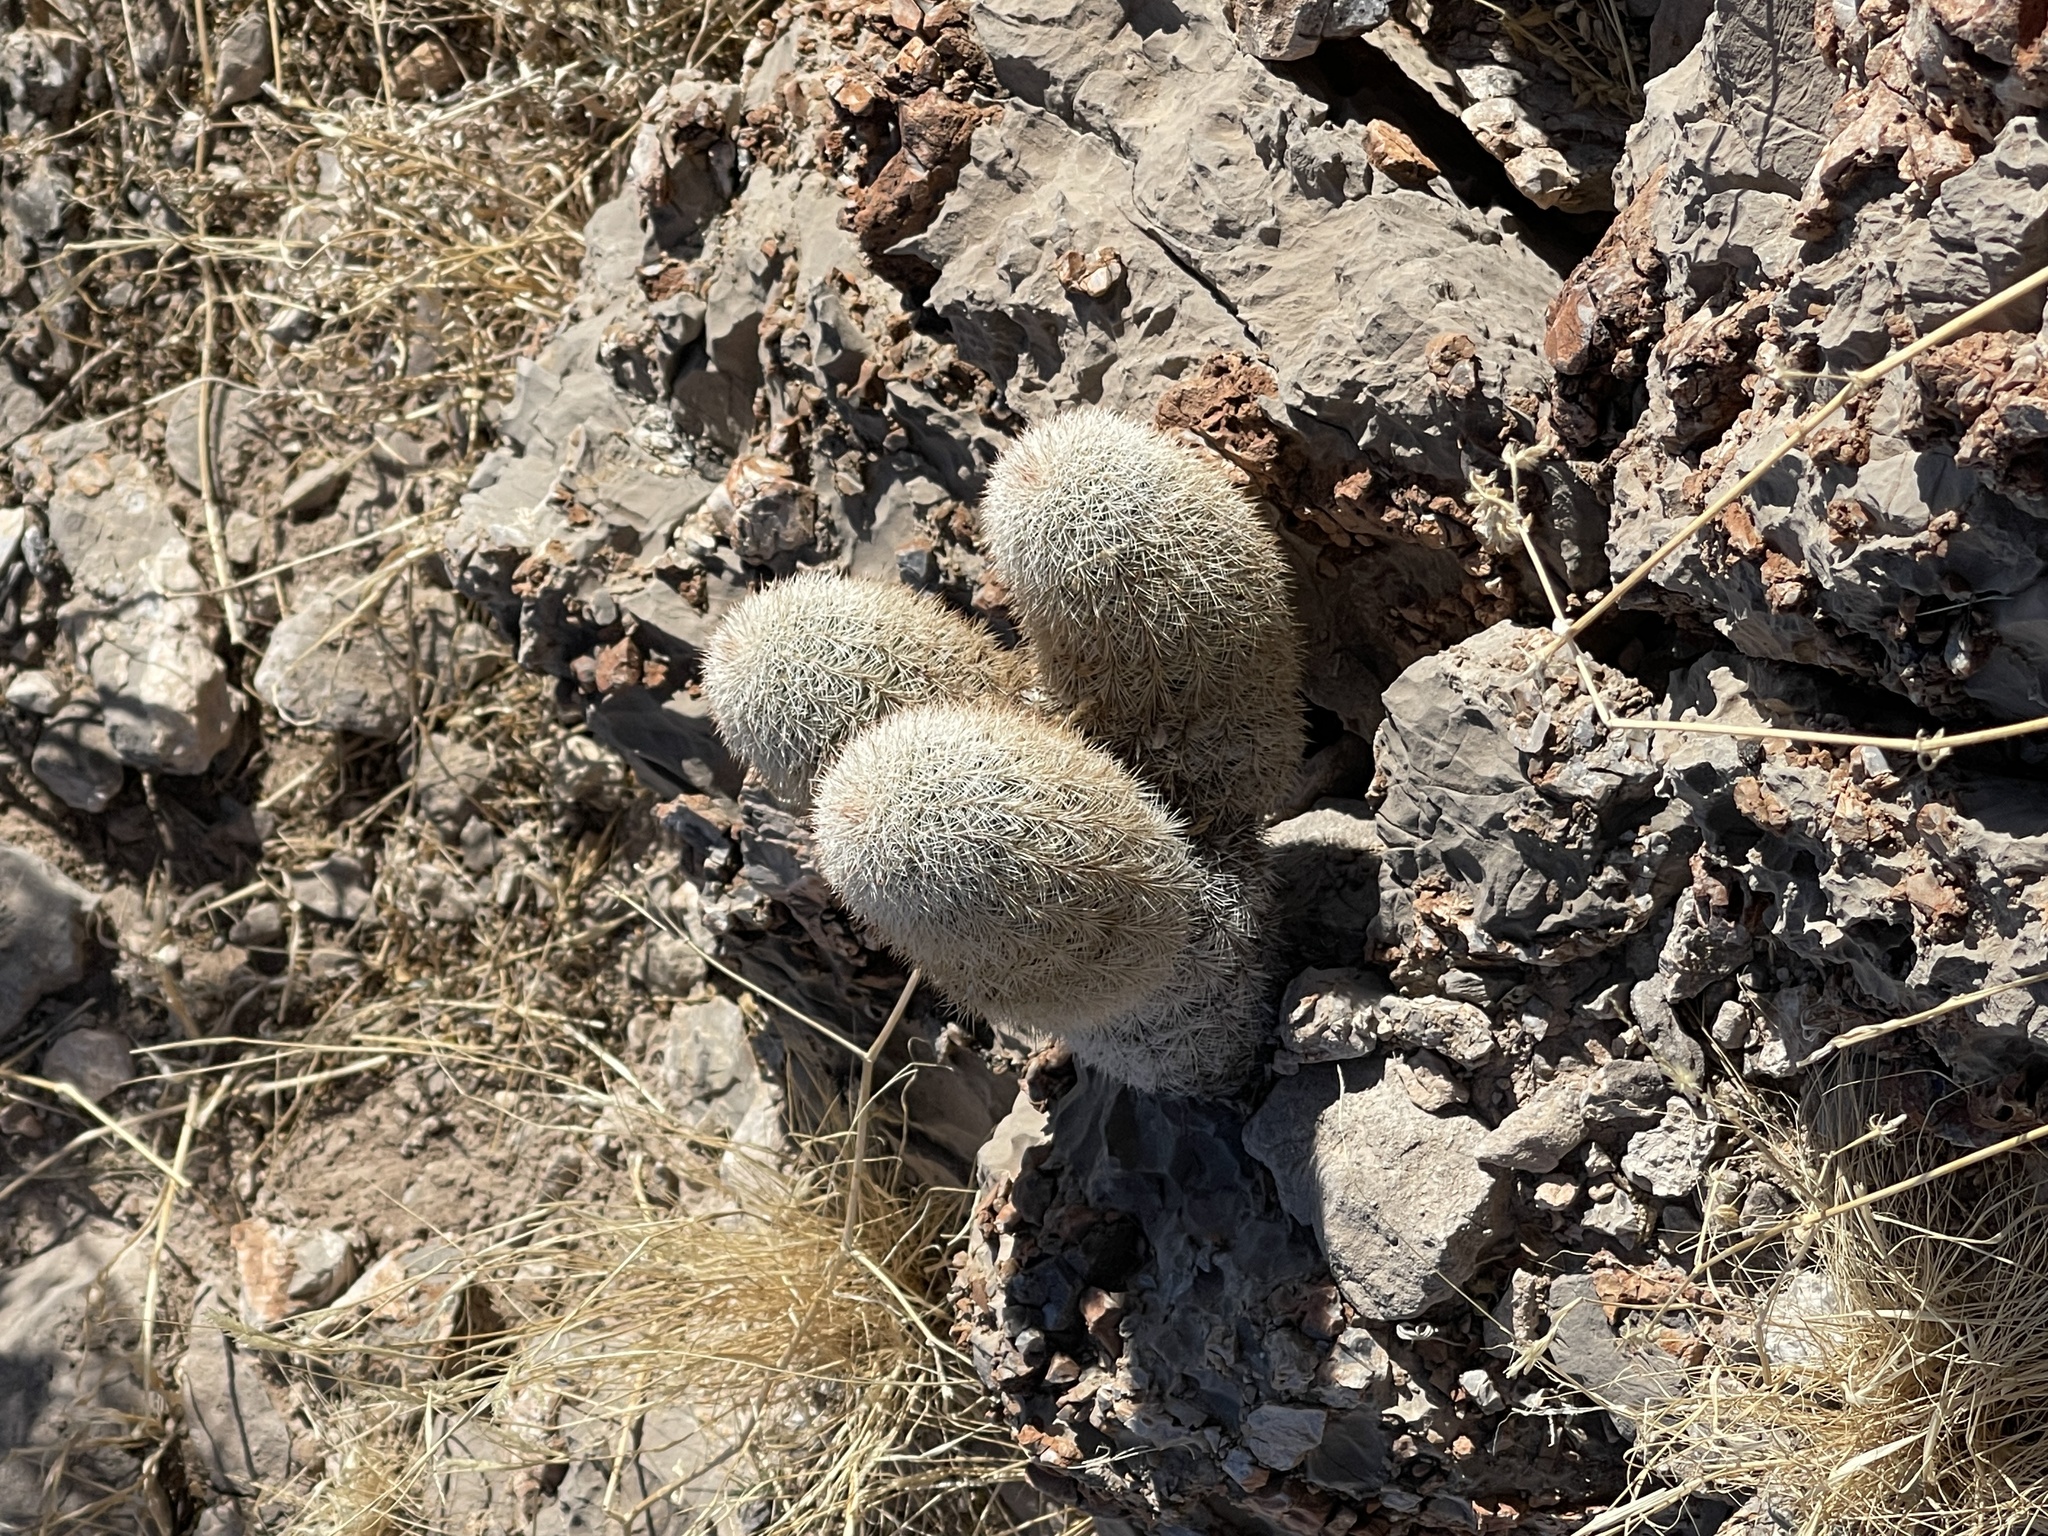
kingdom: Plantae
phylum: Tracheophyta
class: Magnoliopsida
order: Caryophyllales
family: Cactaceae
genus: Echinocereus
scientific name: Echinocereus dasyacanthus
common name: Spiny hedgehog cactus
